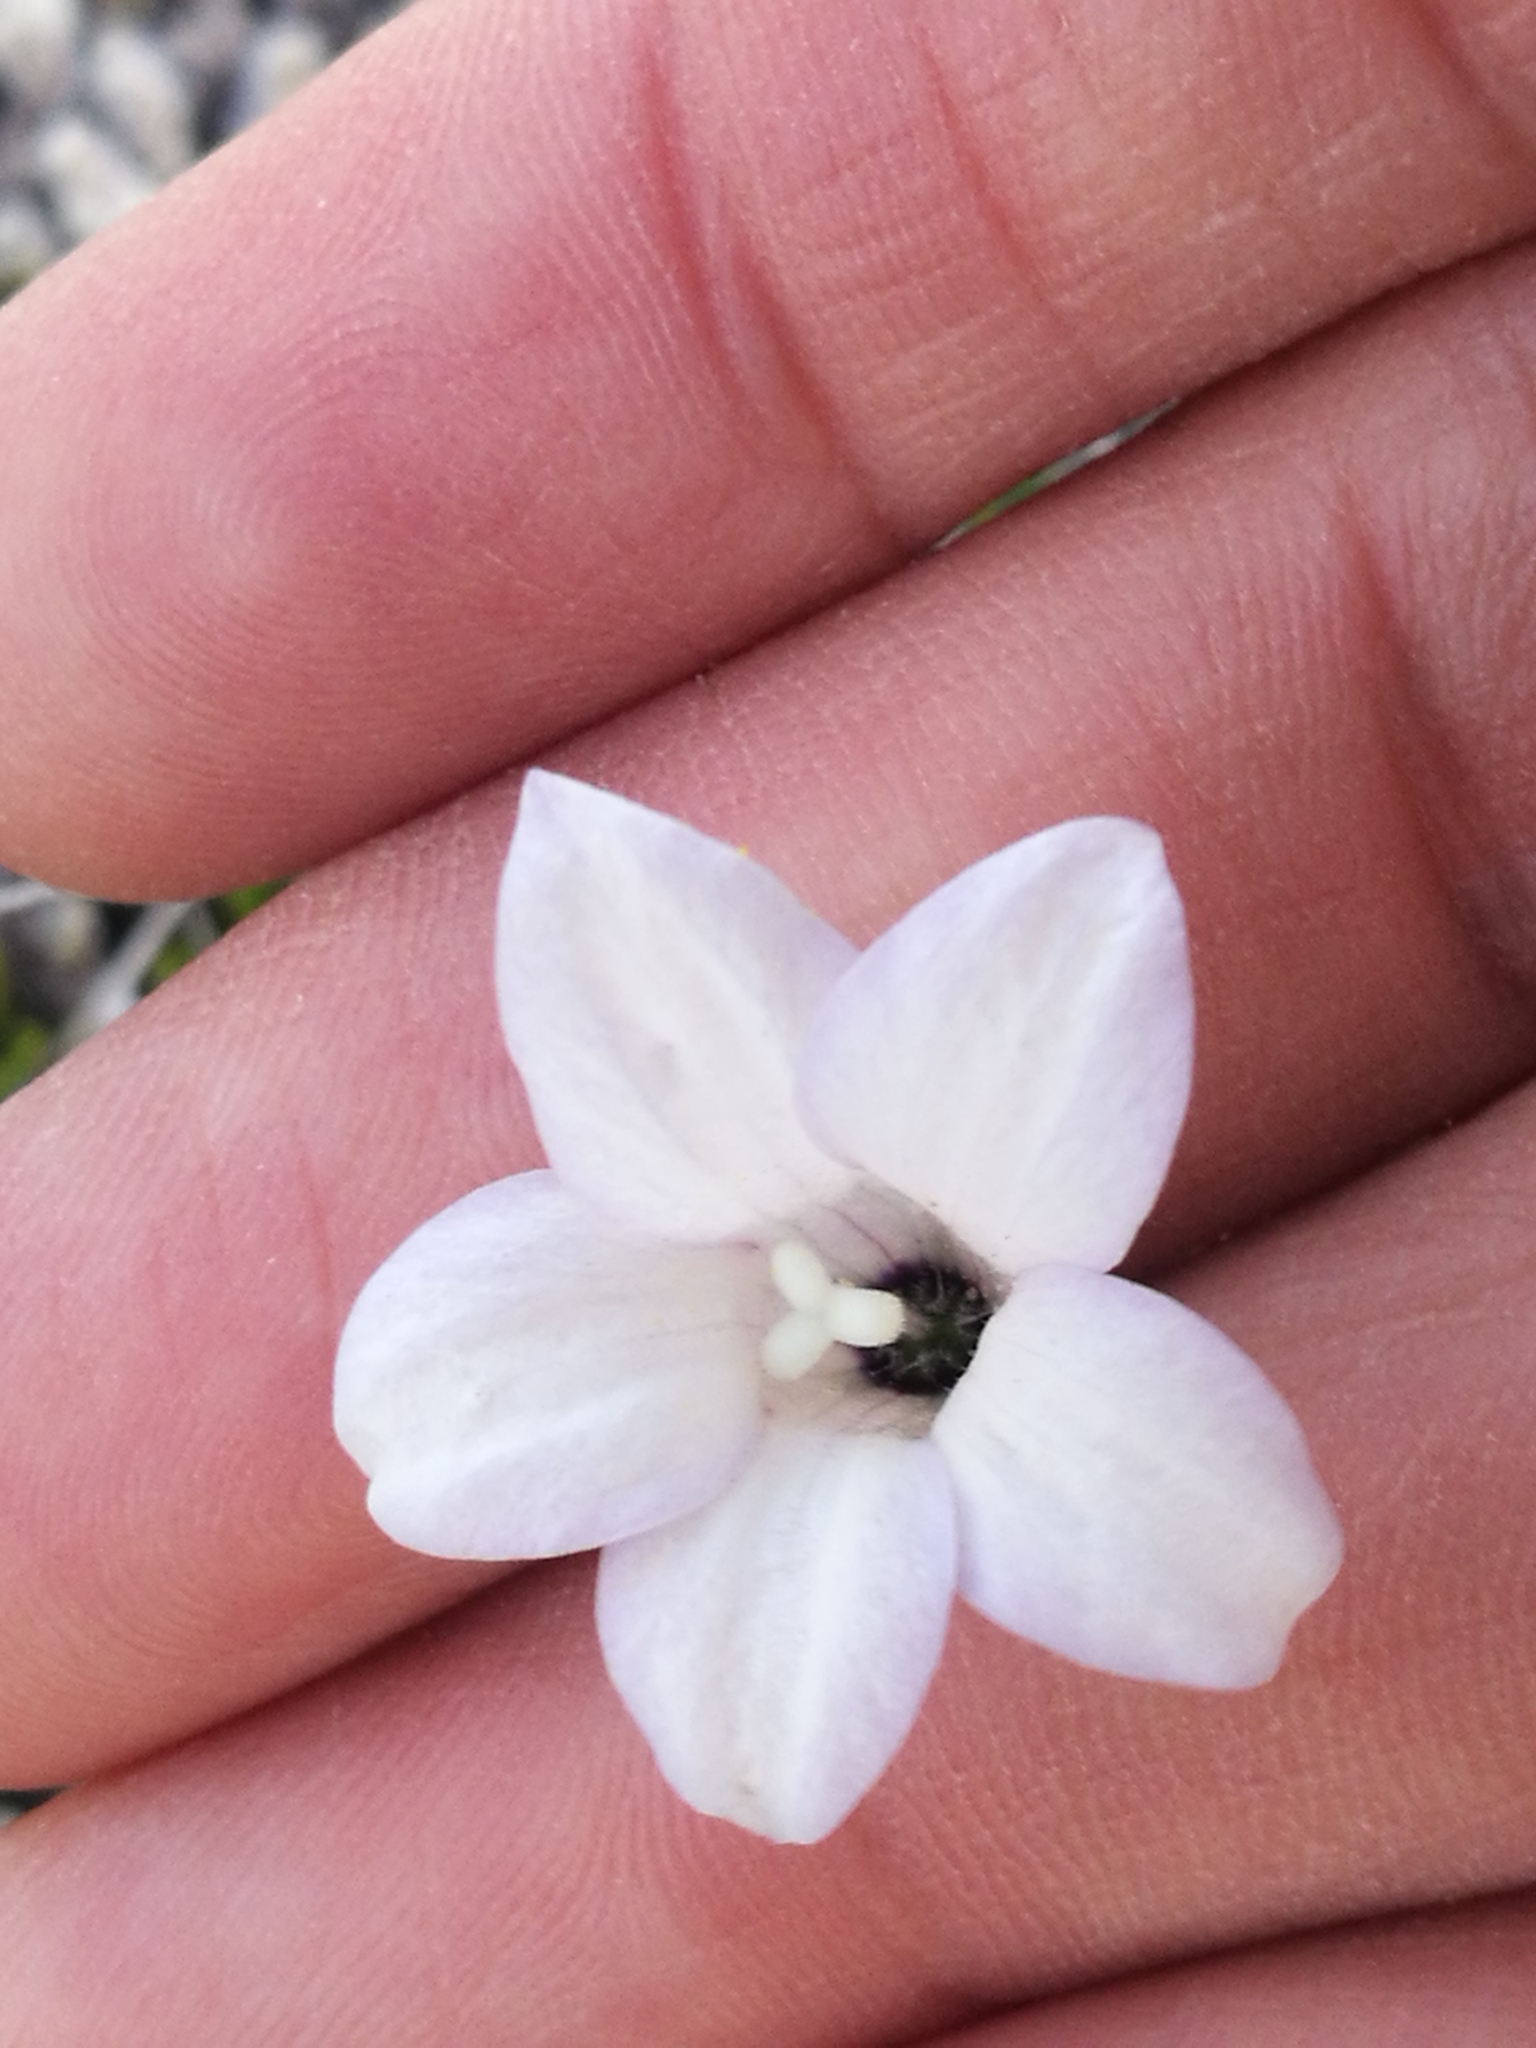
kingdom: Plantae
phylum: Tracheophyta
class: Magnoliopsida
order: Asterales
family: Campanulaceae
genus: Wahlenbergia
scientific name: Wahlenbergia albomarginata
